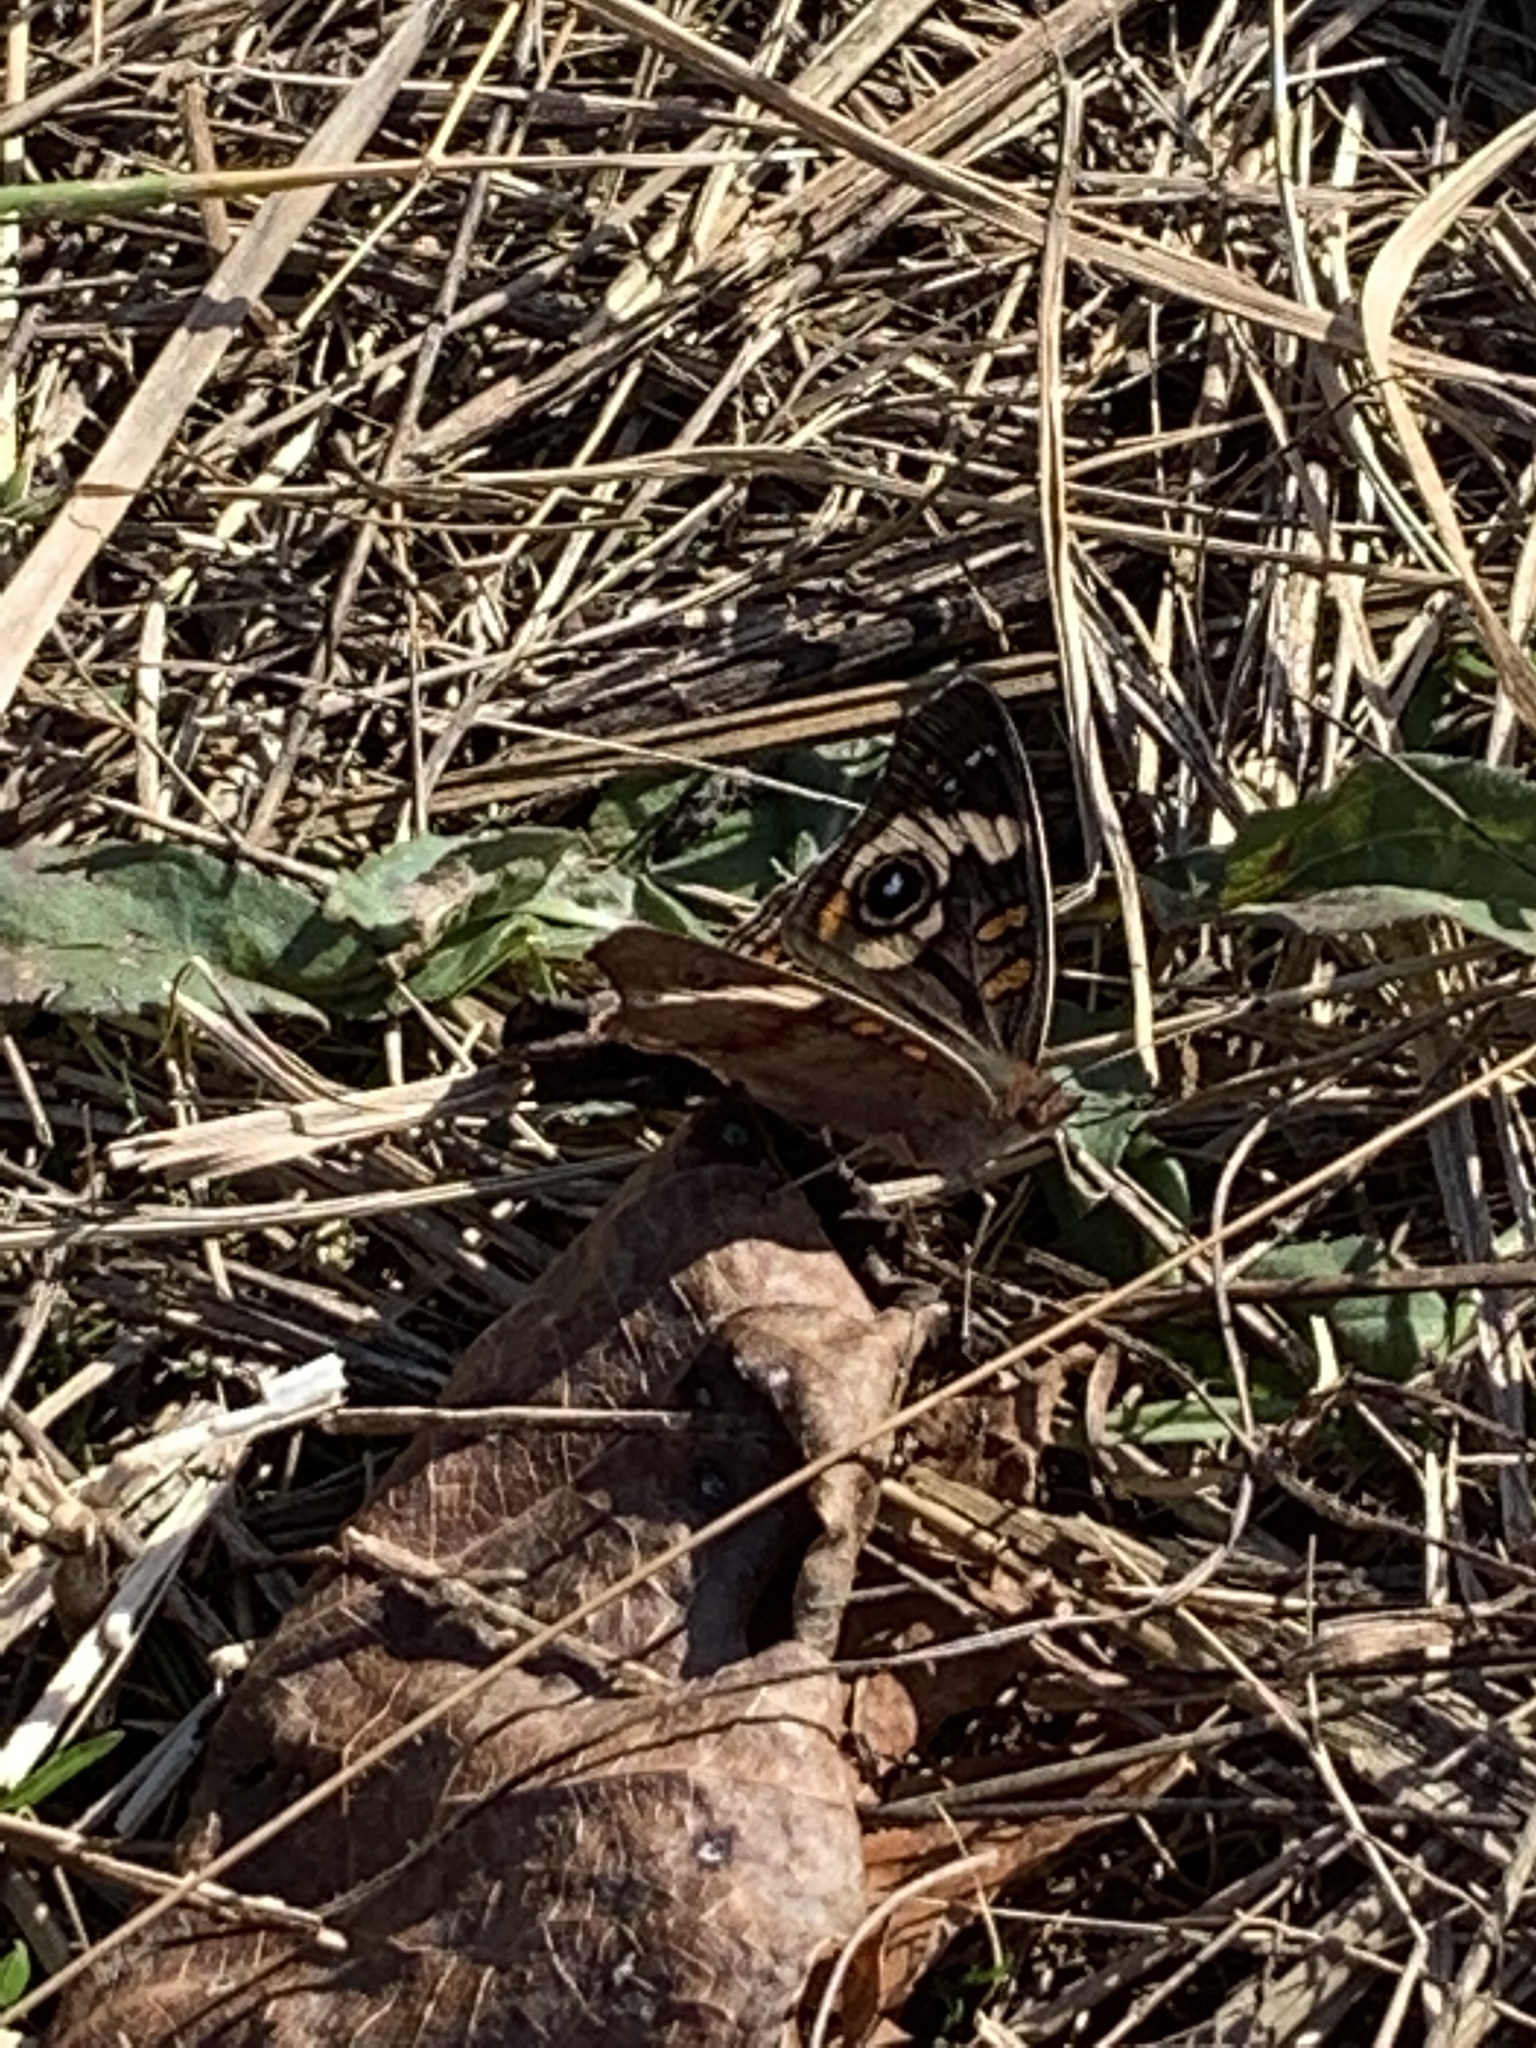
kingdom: Animalia
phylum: Arthropoda
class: Insecta
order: Lepidoptera
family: Nymphalidae
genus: Junonia
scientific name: Junonia coenia
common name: Common buckeye
